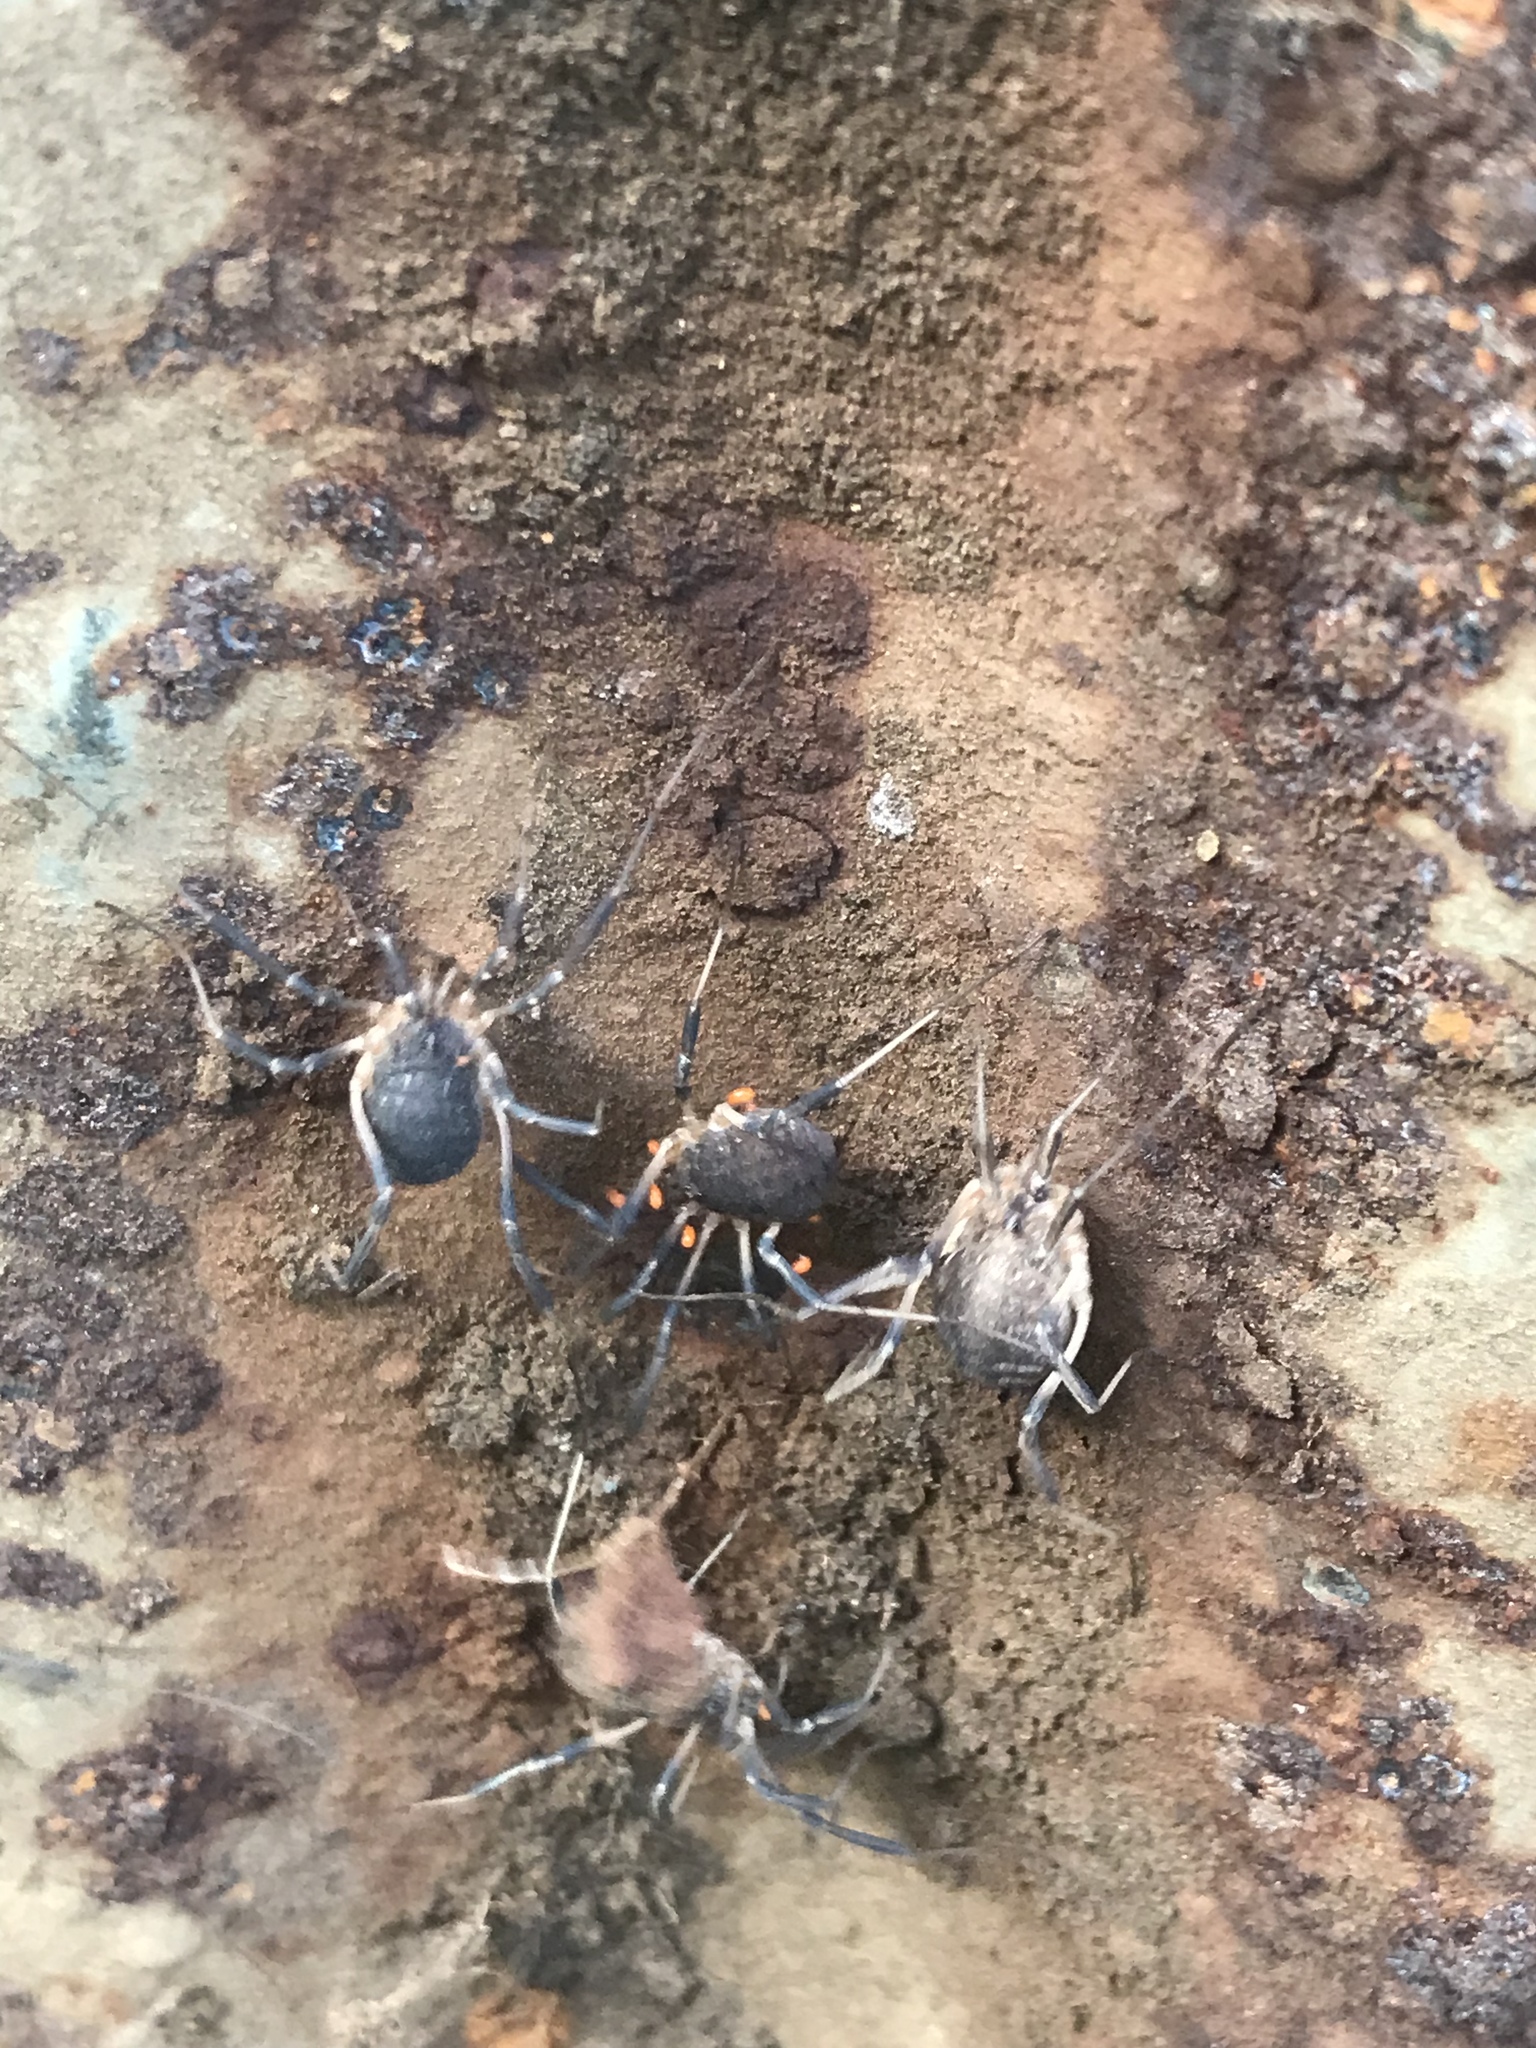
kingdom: Animalia
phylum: Arthropoda
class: Arachnida
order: Opiliones
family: Sclerosomatidae
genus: Eumesosoma
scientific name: Eumesosoma roeweri
